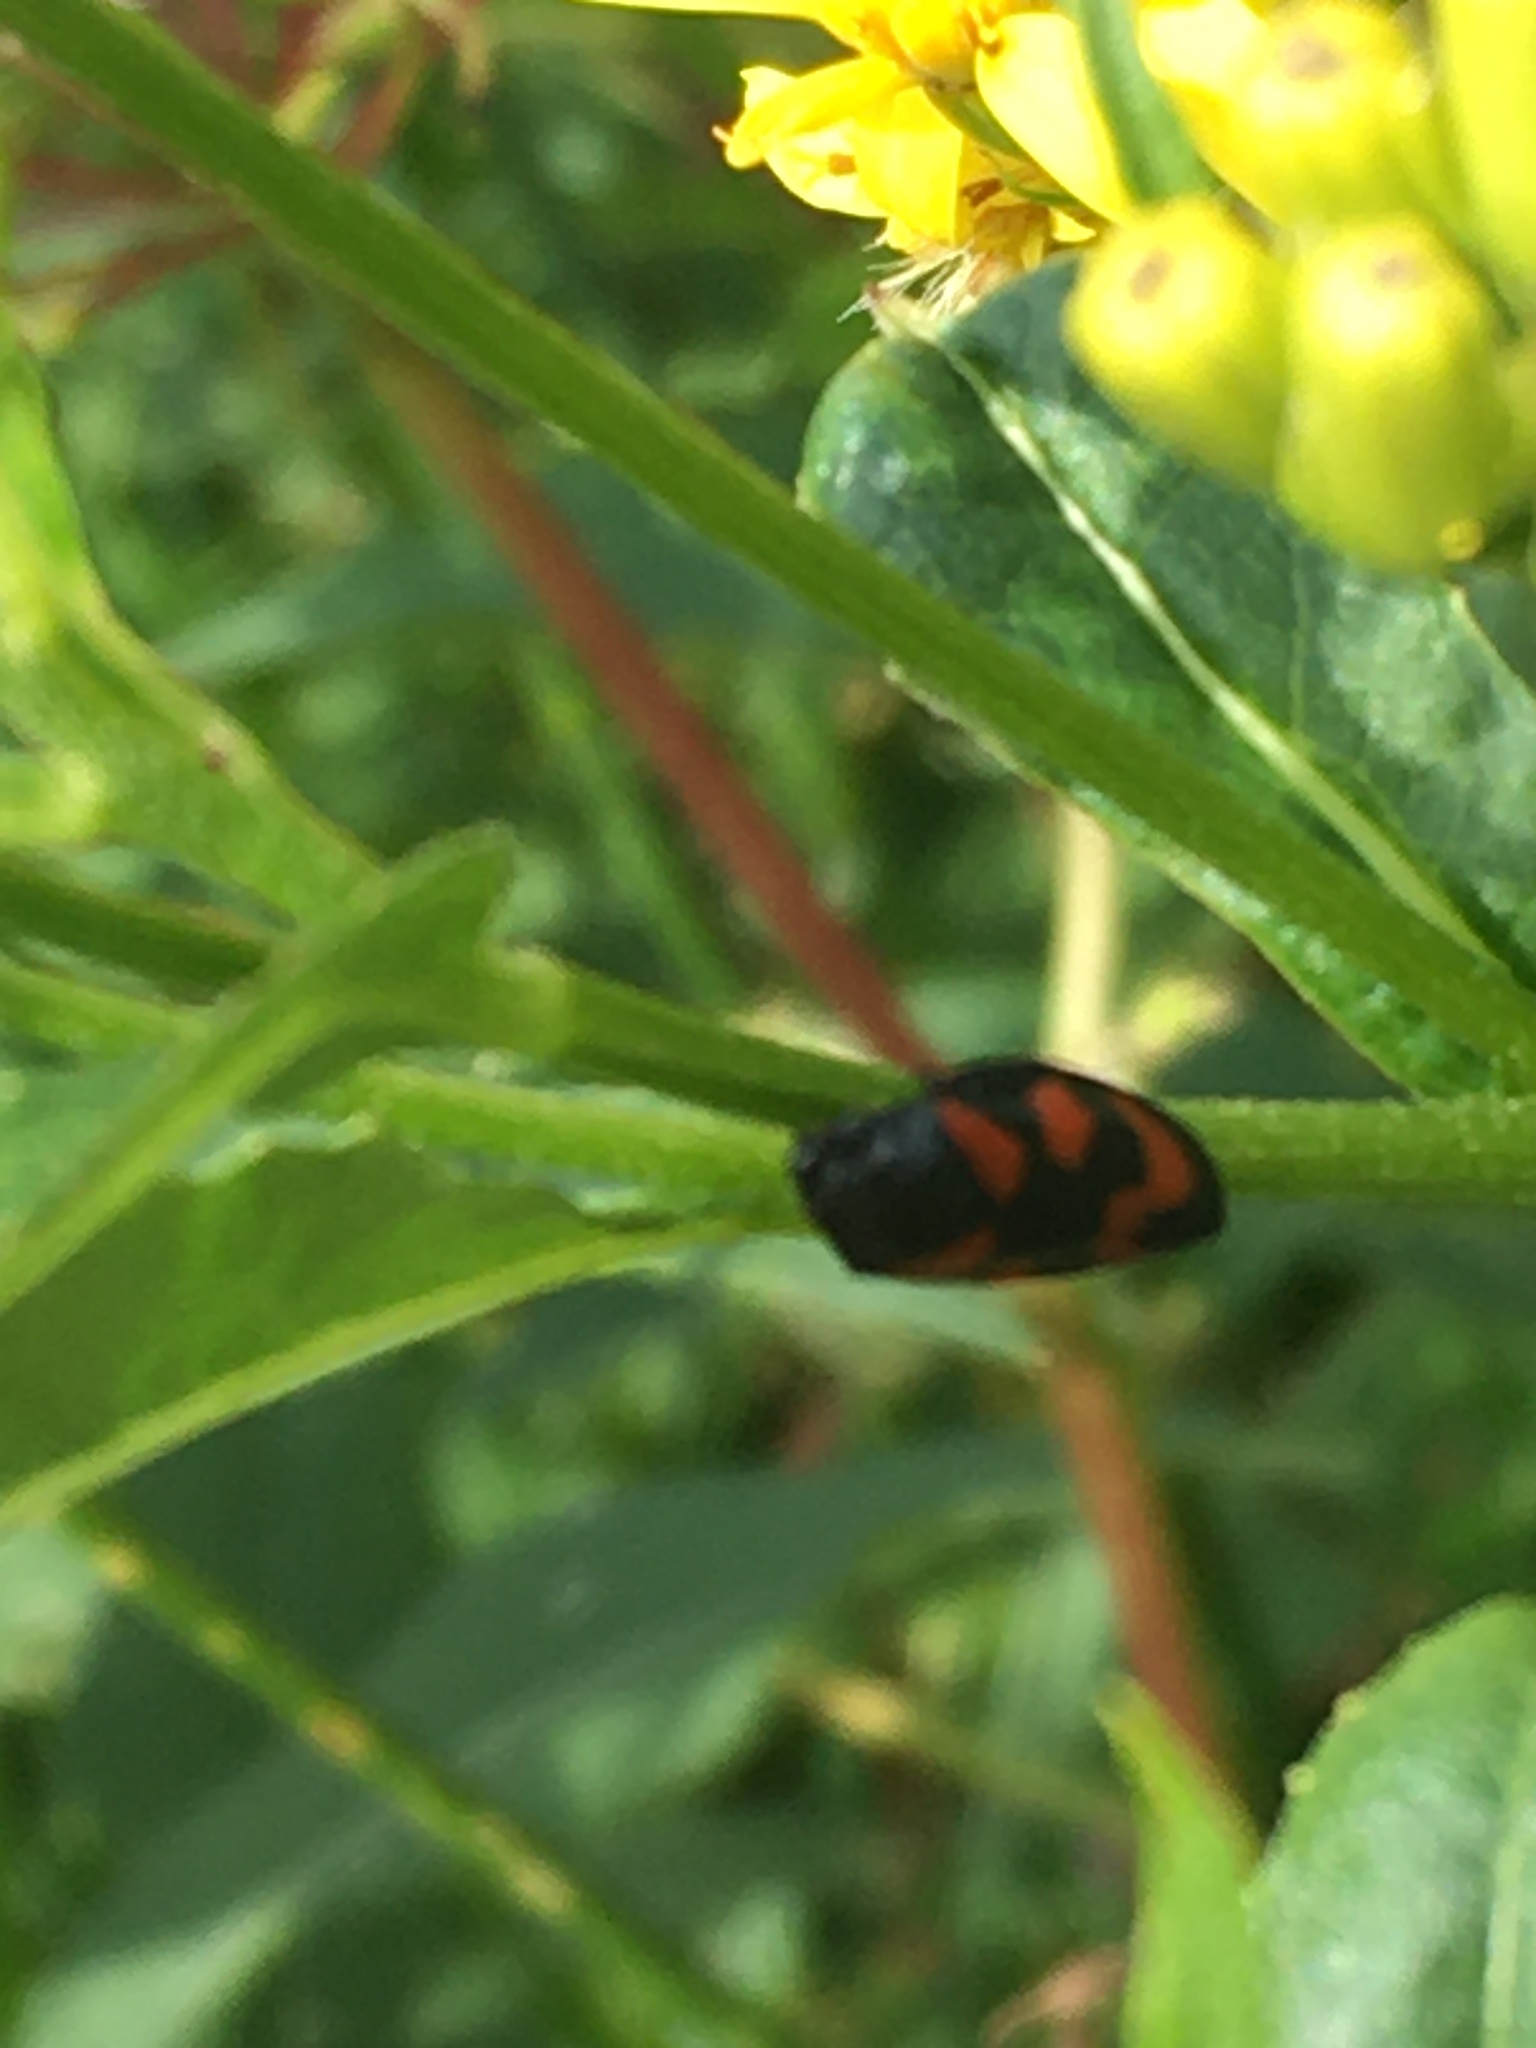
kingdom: Animalia
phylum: Arthropoda
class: Insecta
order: Hemiptera
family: Cercopidae
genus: Cercopis
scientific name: Cercopis vulnerata
